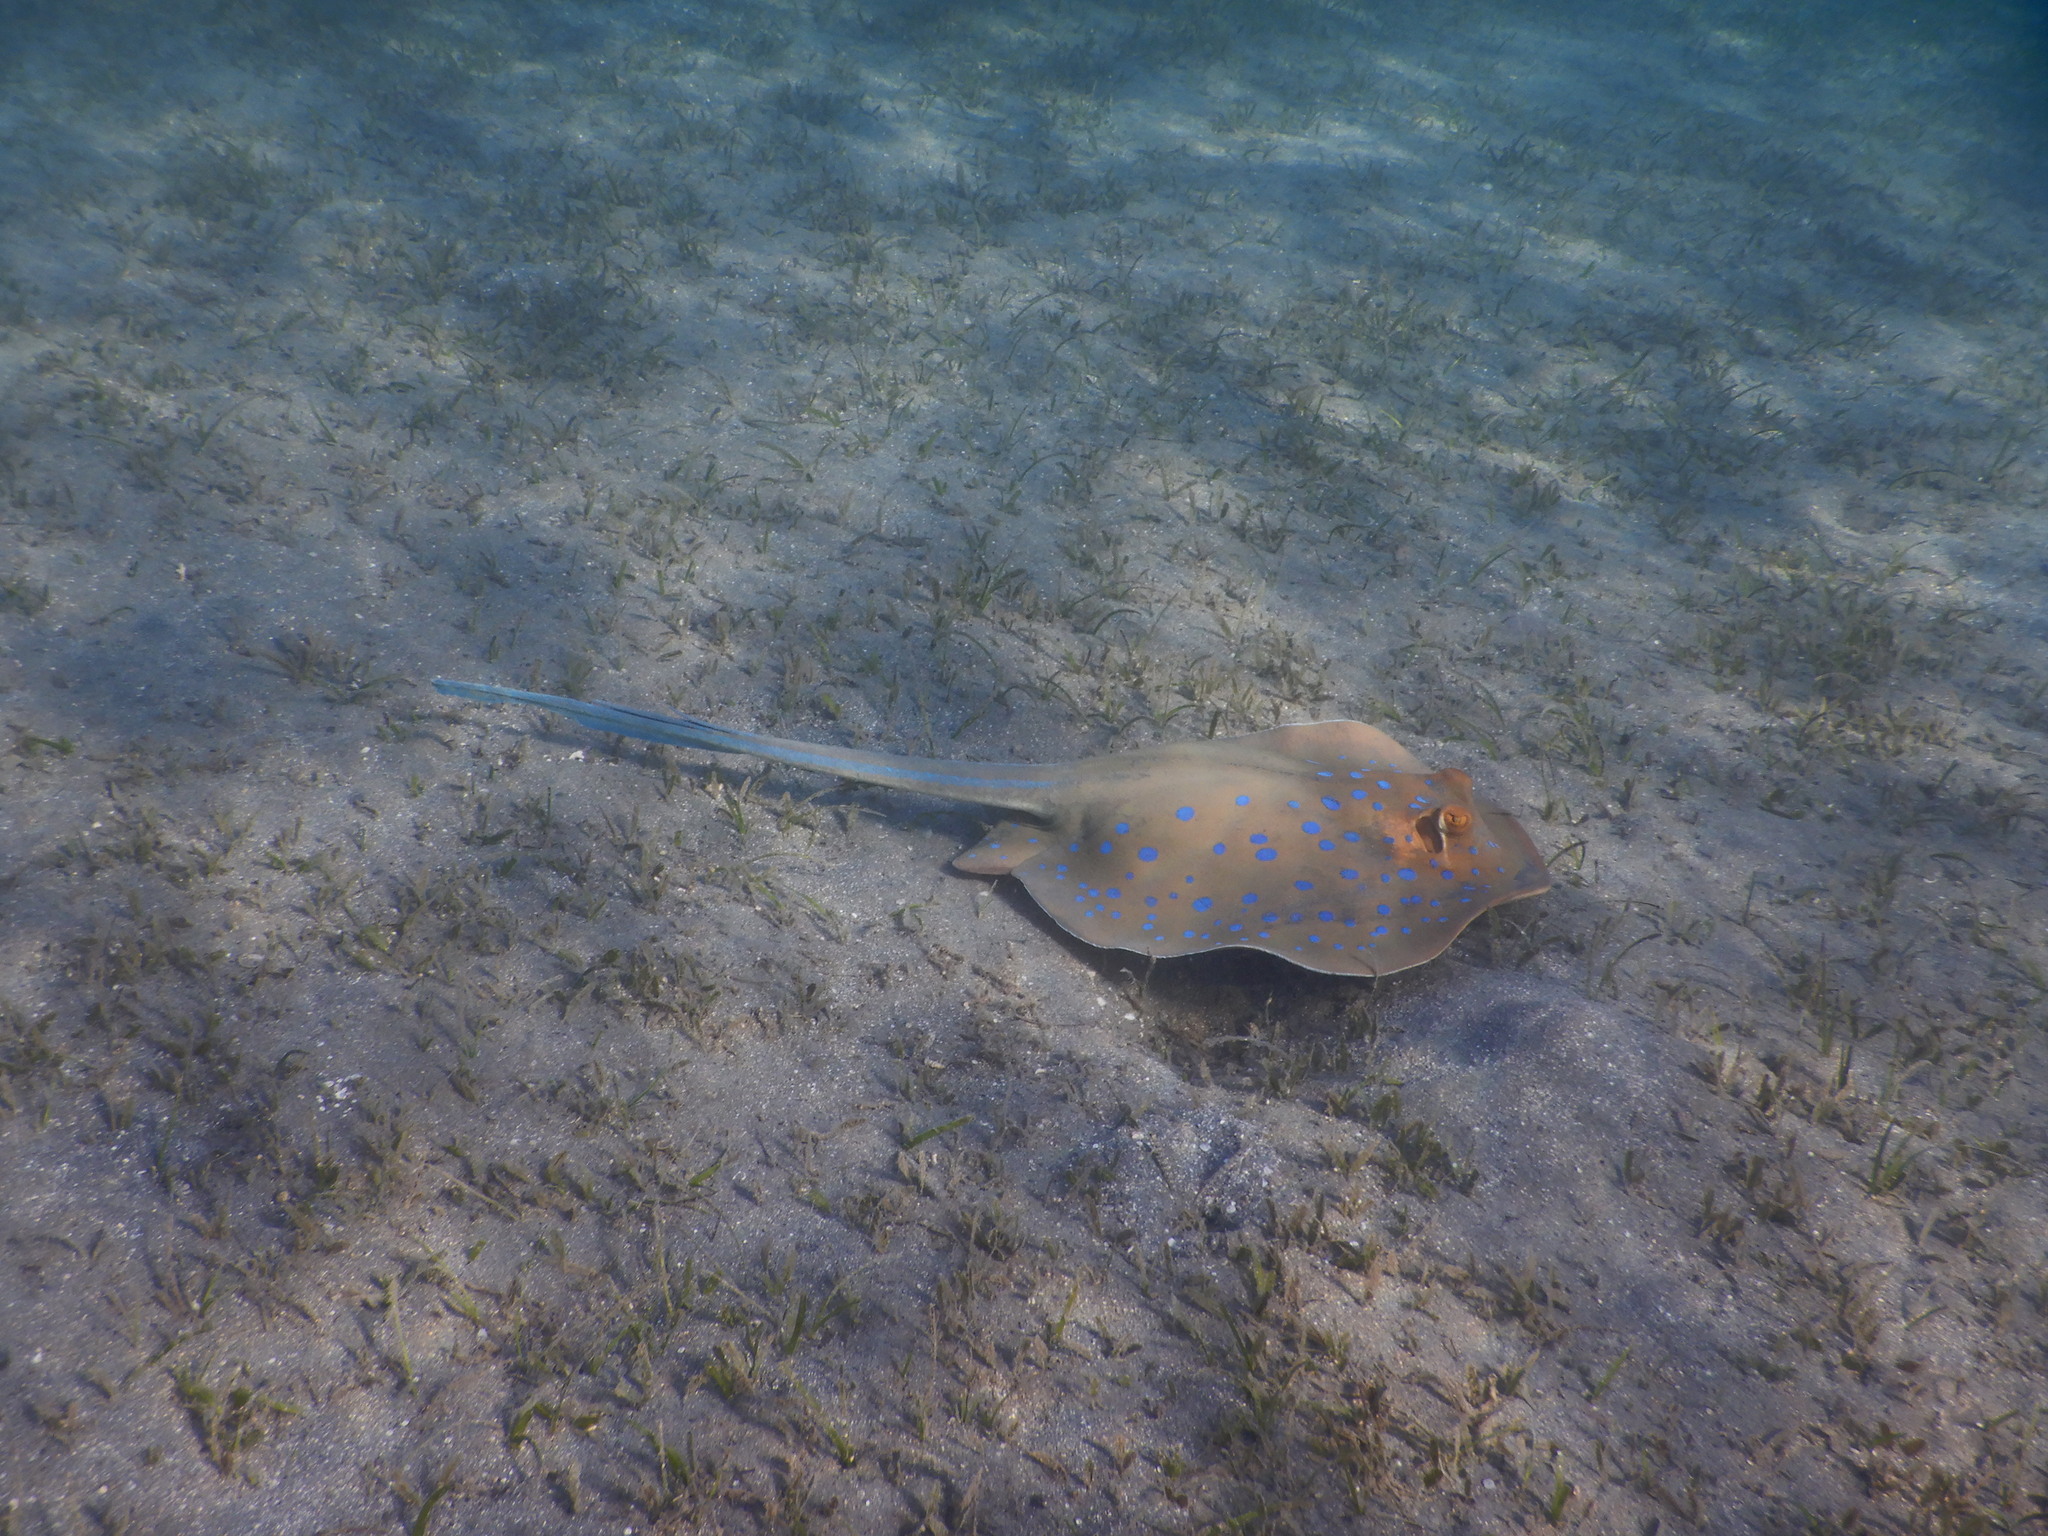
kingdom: Animalia
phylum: Chordata
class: Elasmobranchii
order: Myliobatiformes
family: Dasyatidae
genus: Taeniura
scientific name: Taeniura lymma
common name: Bluespotted ribbontail ray
